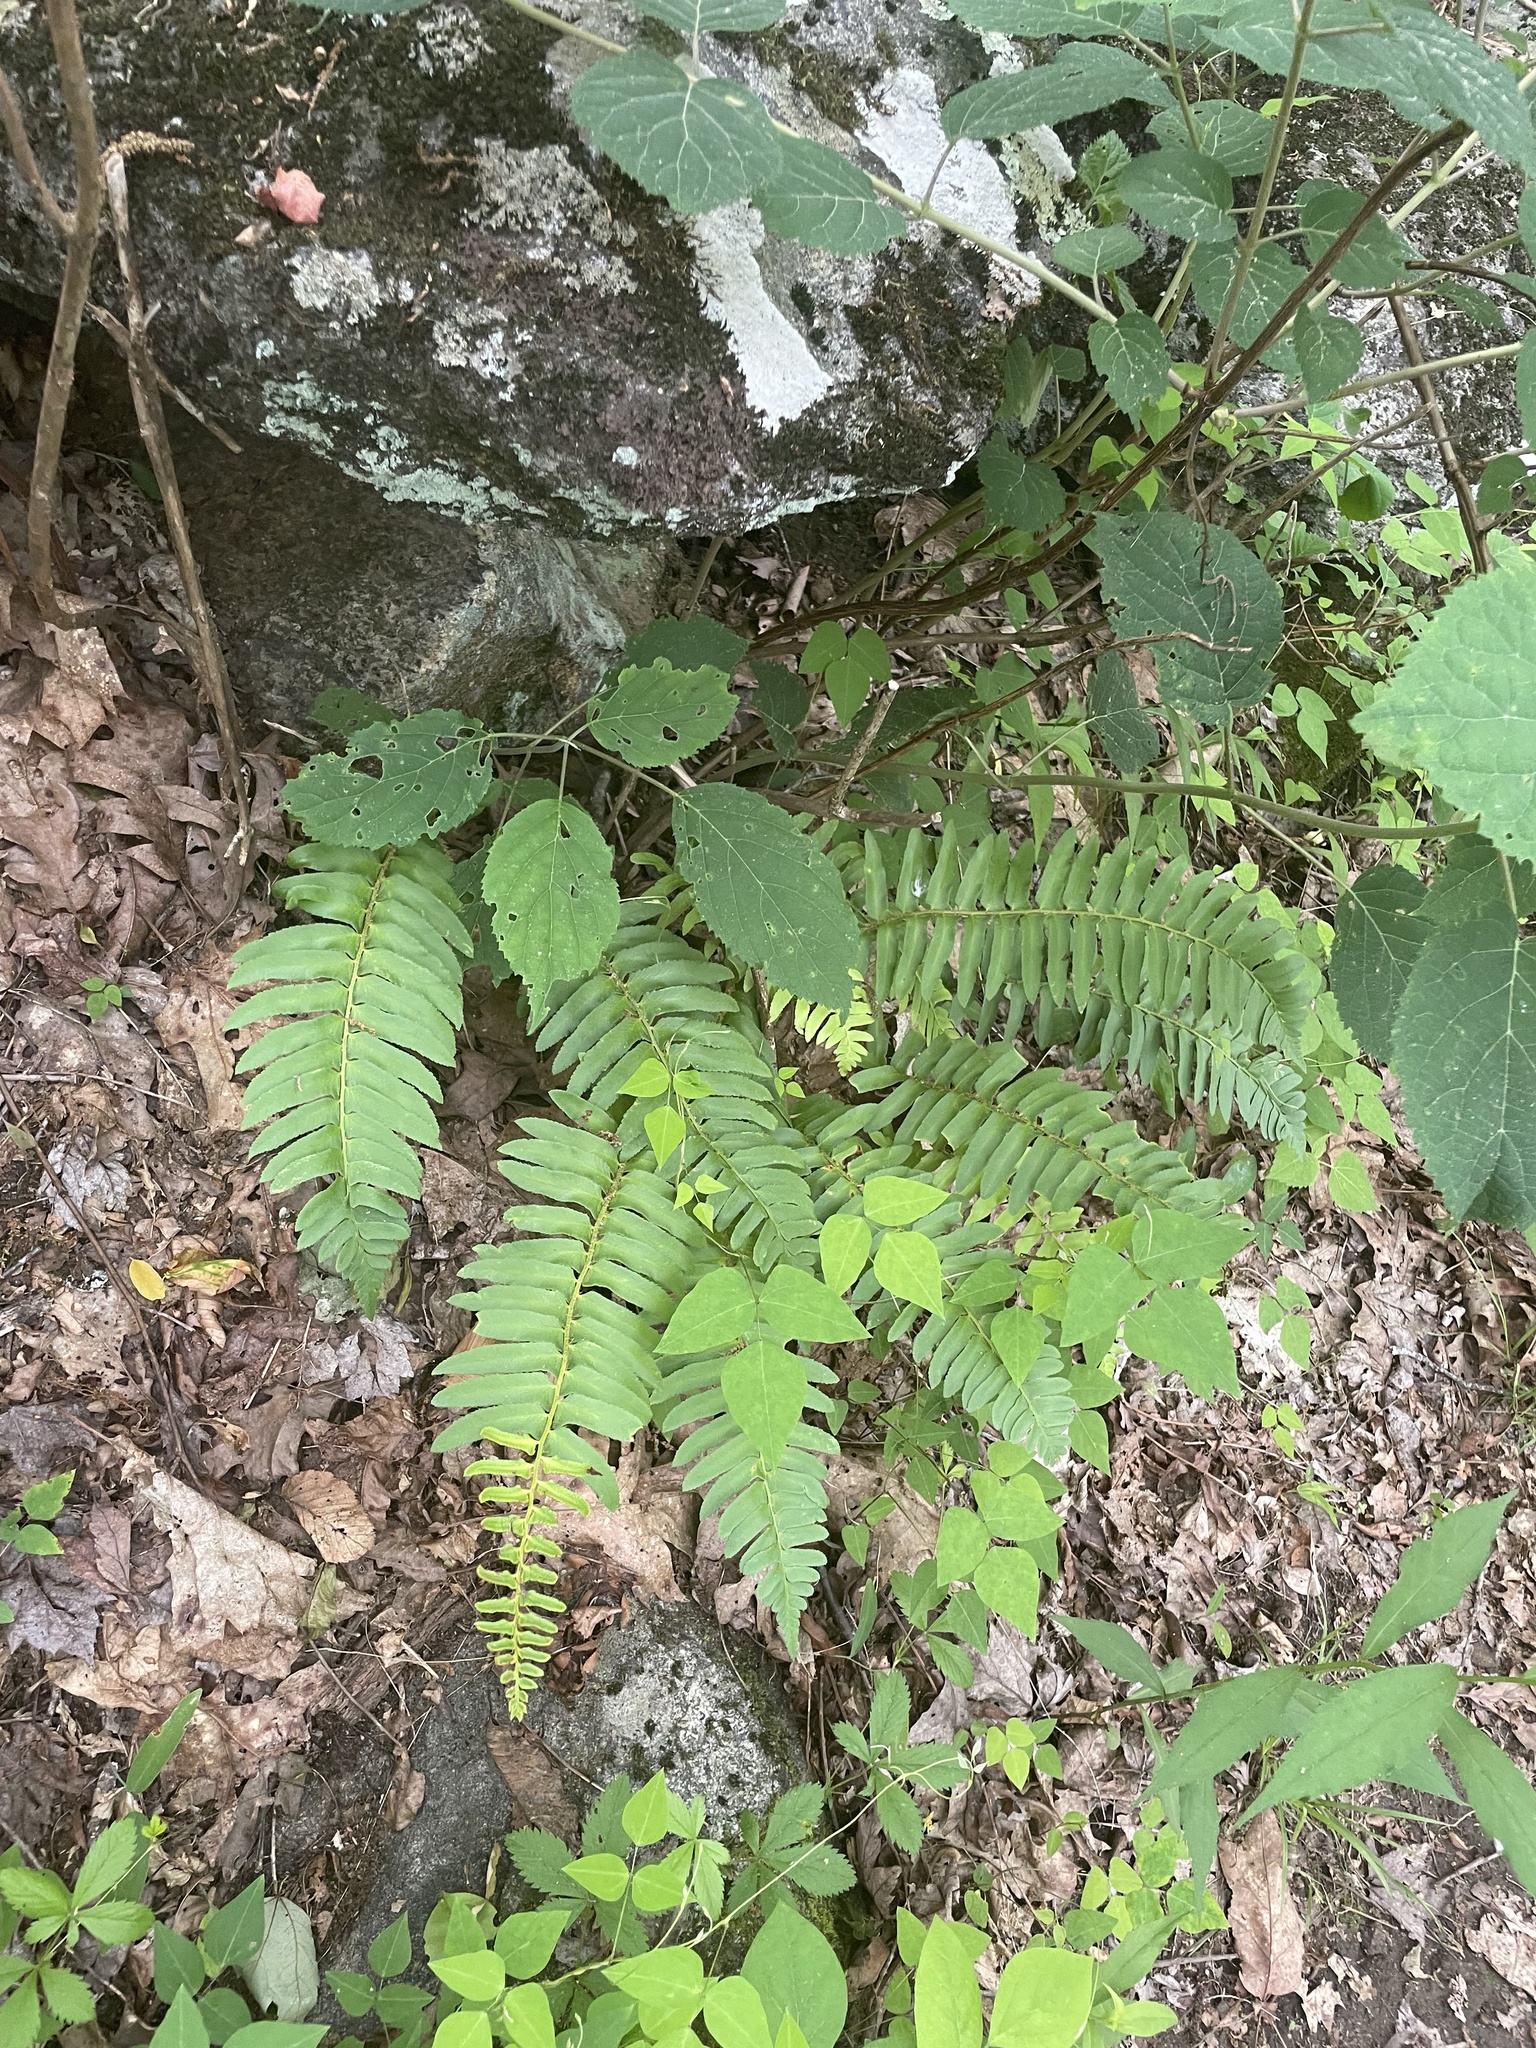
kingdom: Plantae
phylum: Tracheophyta
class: Polypodiopsida
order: Polypodiales
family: Dryopteridaceae
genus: Polystichum
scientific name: Polystichum acrostichoides
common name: Christmas fern
